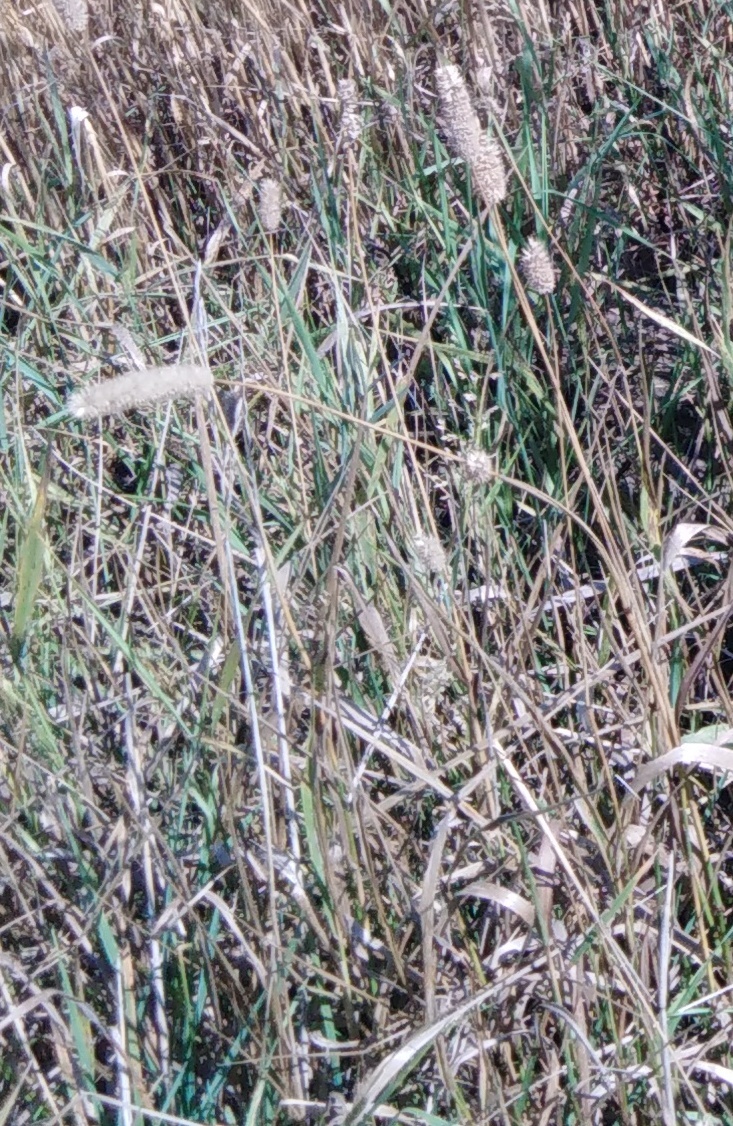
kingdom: Plantae
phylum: Tracheophyta
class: Liliopsida
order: Poales
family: Poaceae
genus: Phleum
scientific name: Phleum pratense
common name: Timothy grass
